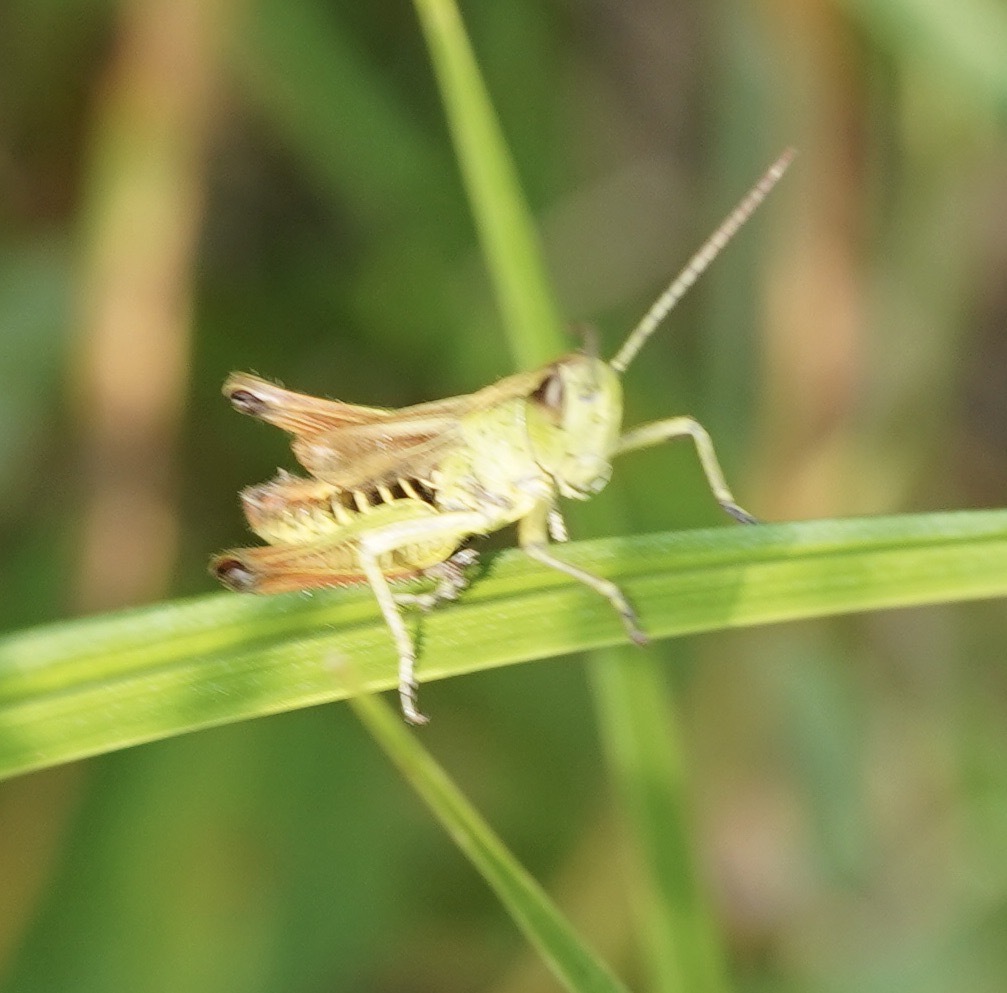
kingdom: Animalia
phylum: Arthropoda
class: Insecta
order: Orthoptera
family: Acrididae
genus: Pseudochorthippus
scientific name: Pseudochorthippus parallelus
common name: Meadow grasshopper
